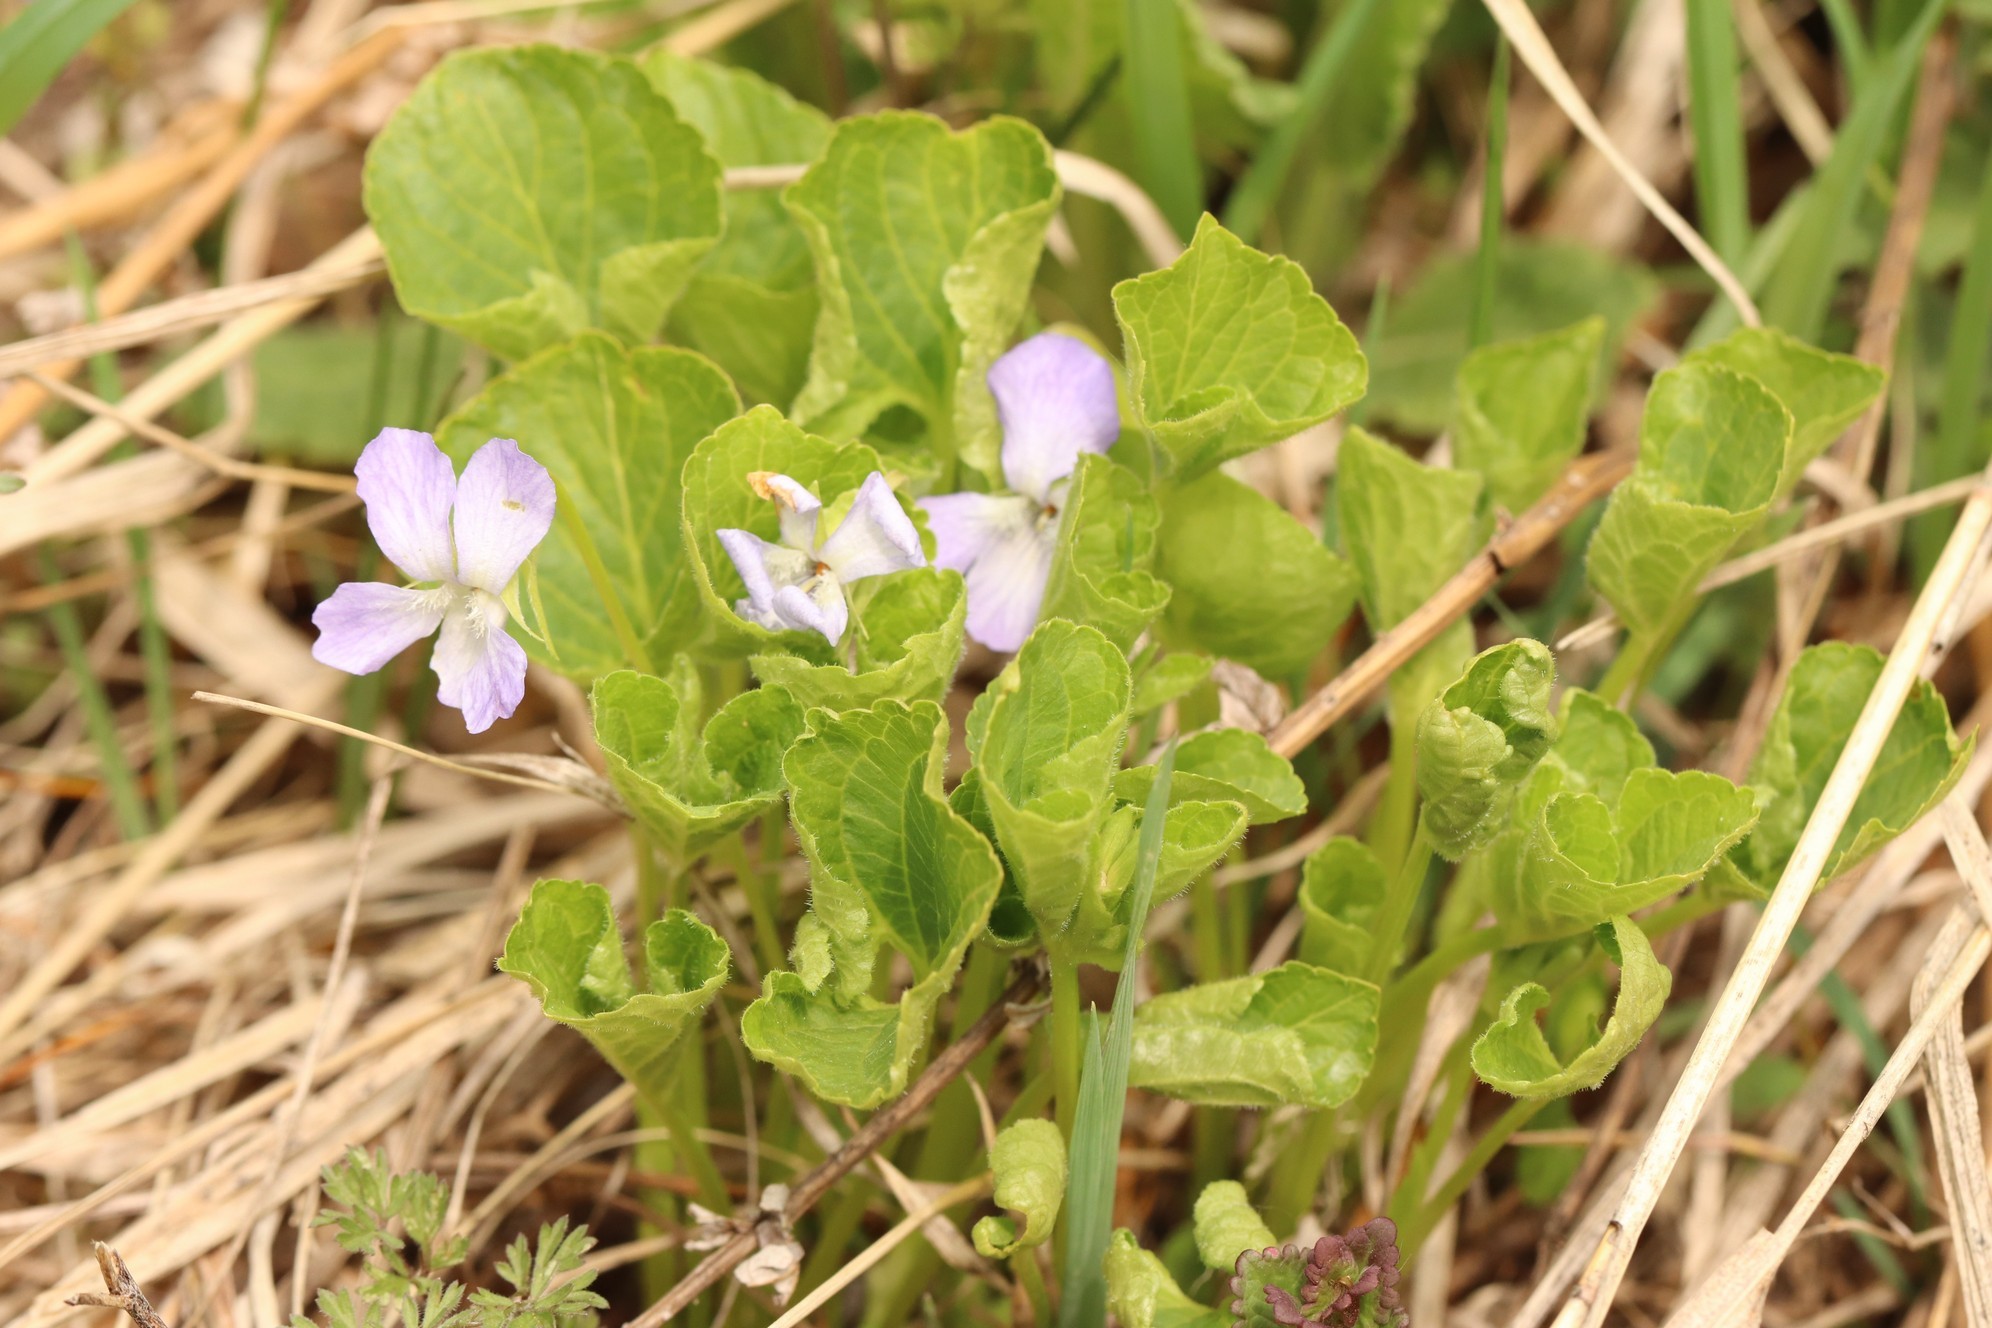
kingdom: Plantae
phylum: Tracheophyta
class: Magnoliopsida
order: Malpighiales
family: Violaceae
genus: Viola
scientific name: Viola mirabilis
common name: Wonder violet
